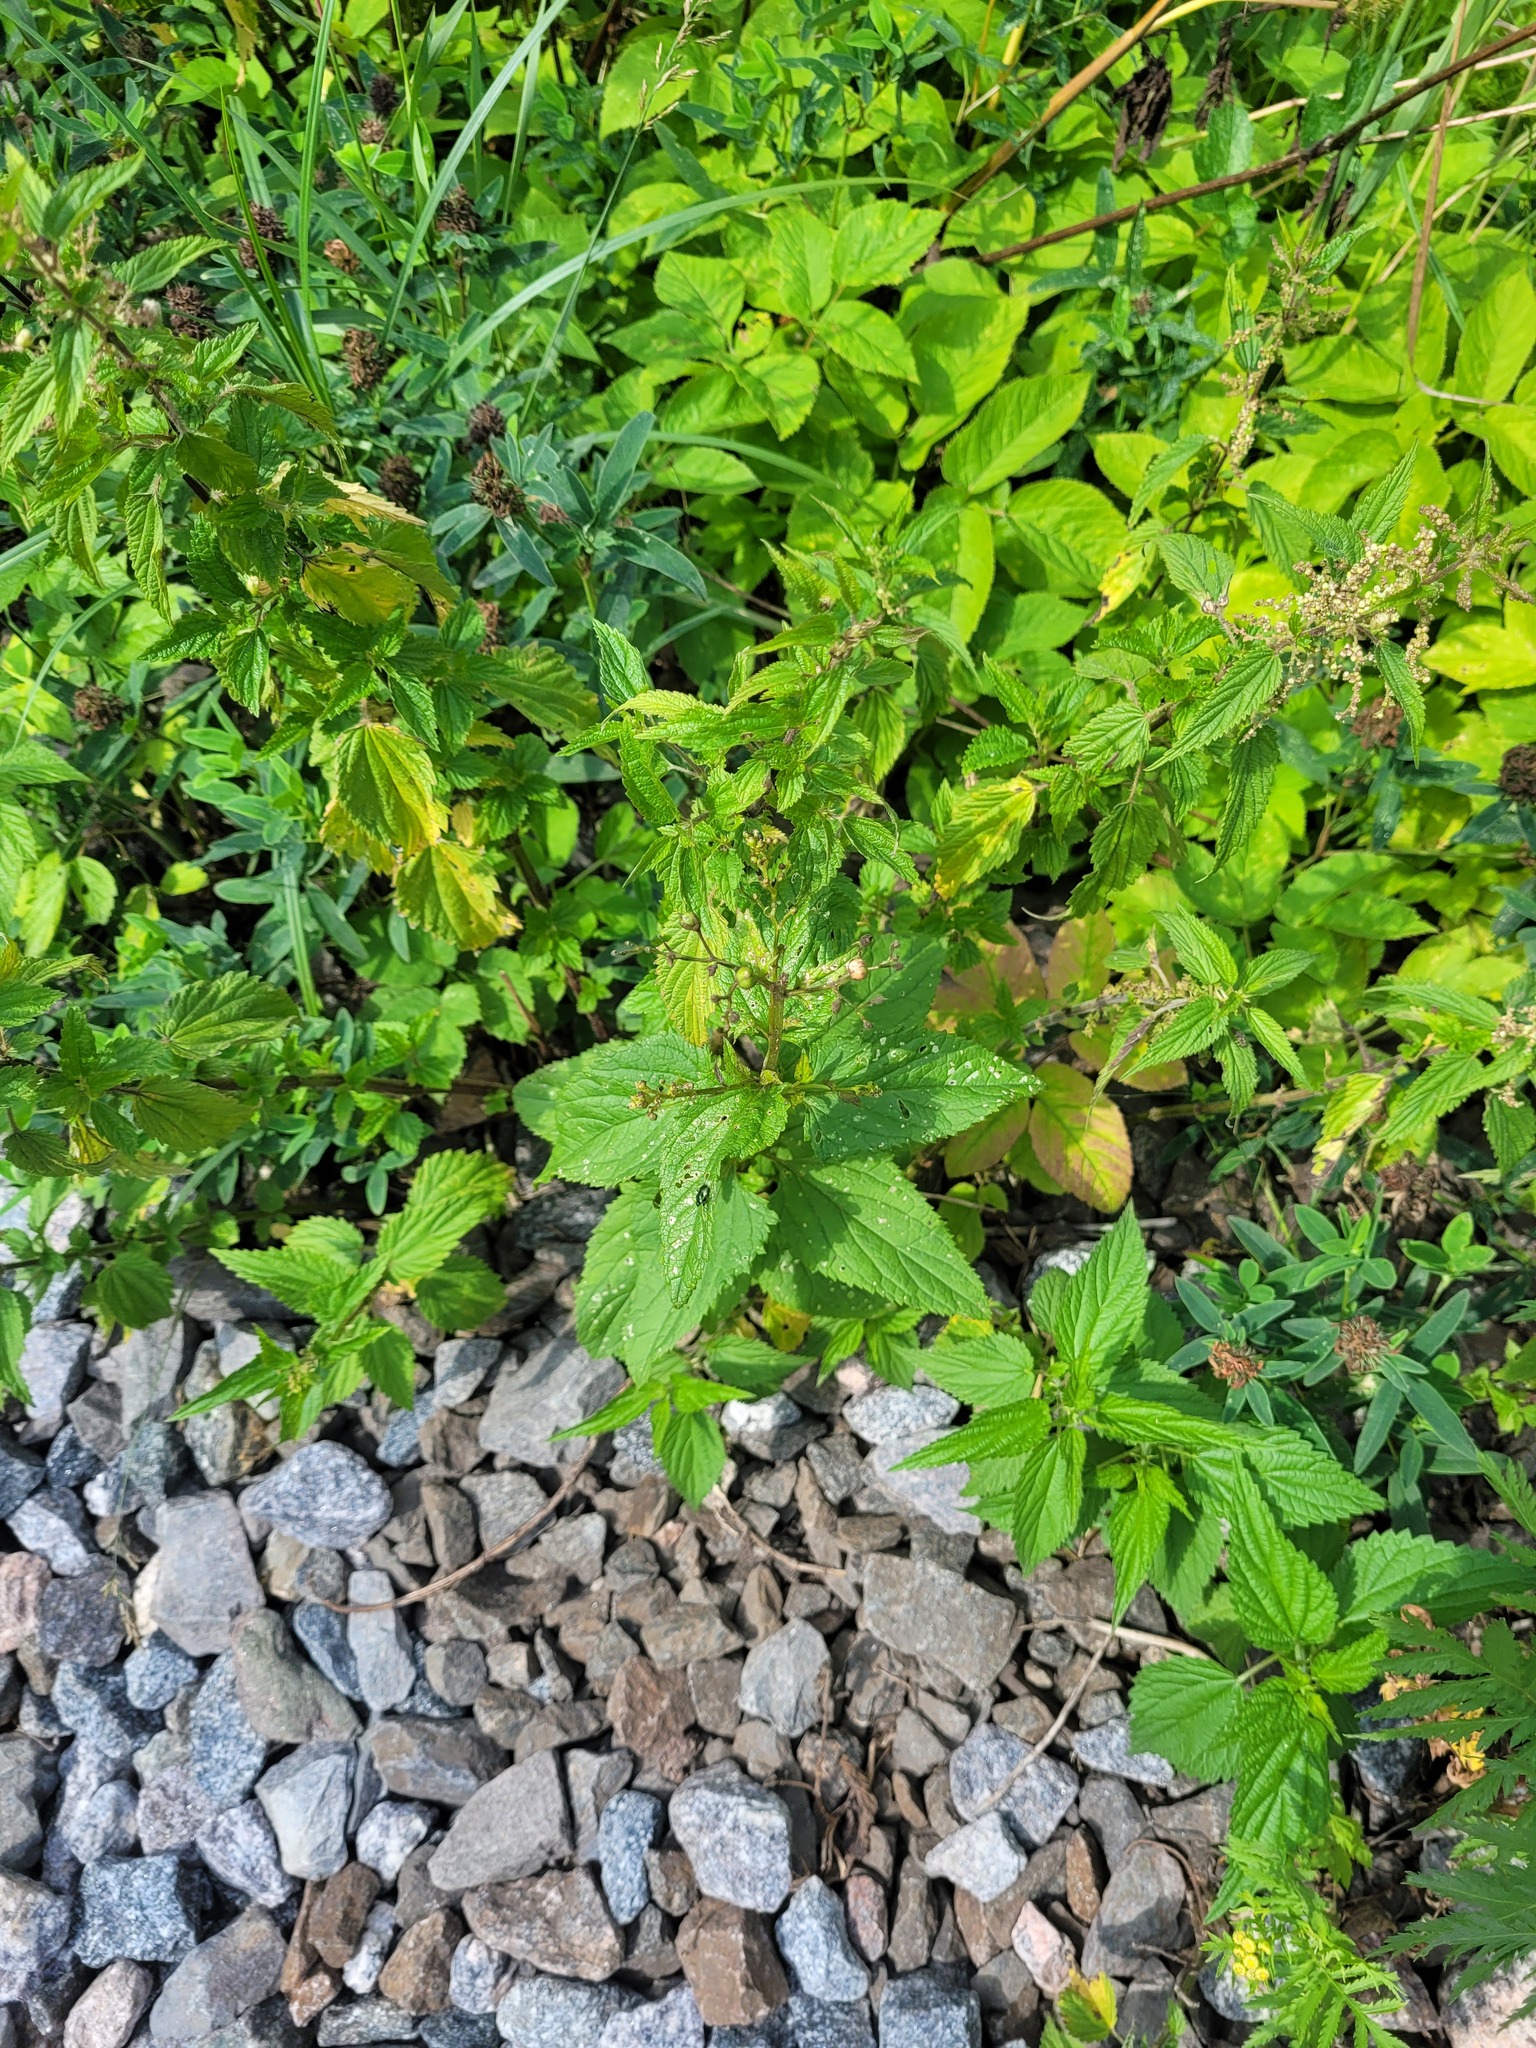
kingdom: Plantae
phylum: Tracheophyta
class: Magnoliopsida
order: Lamiales
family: Scrophulariaceae
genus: Scrophularia
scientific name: Scrophularia nodosa
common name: Common figwort
